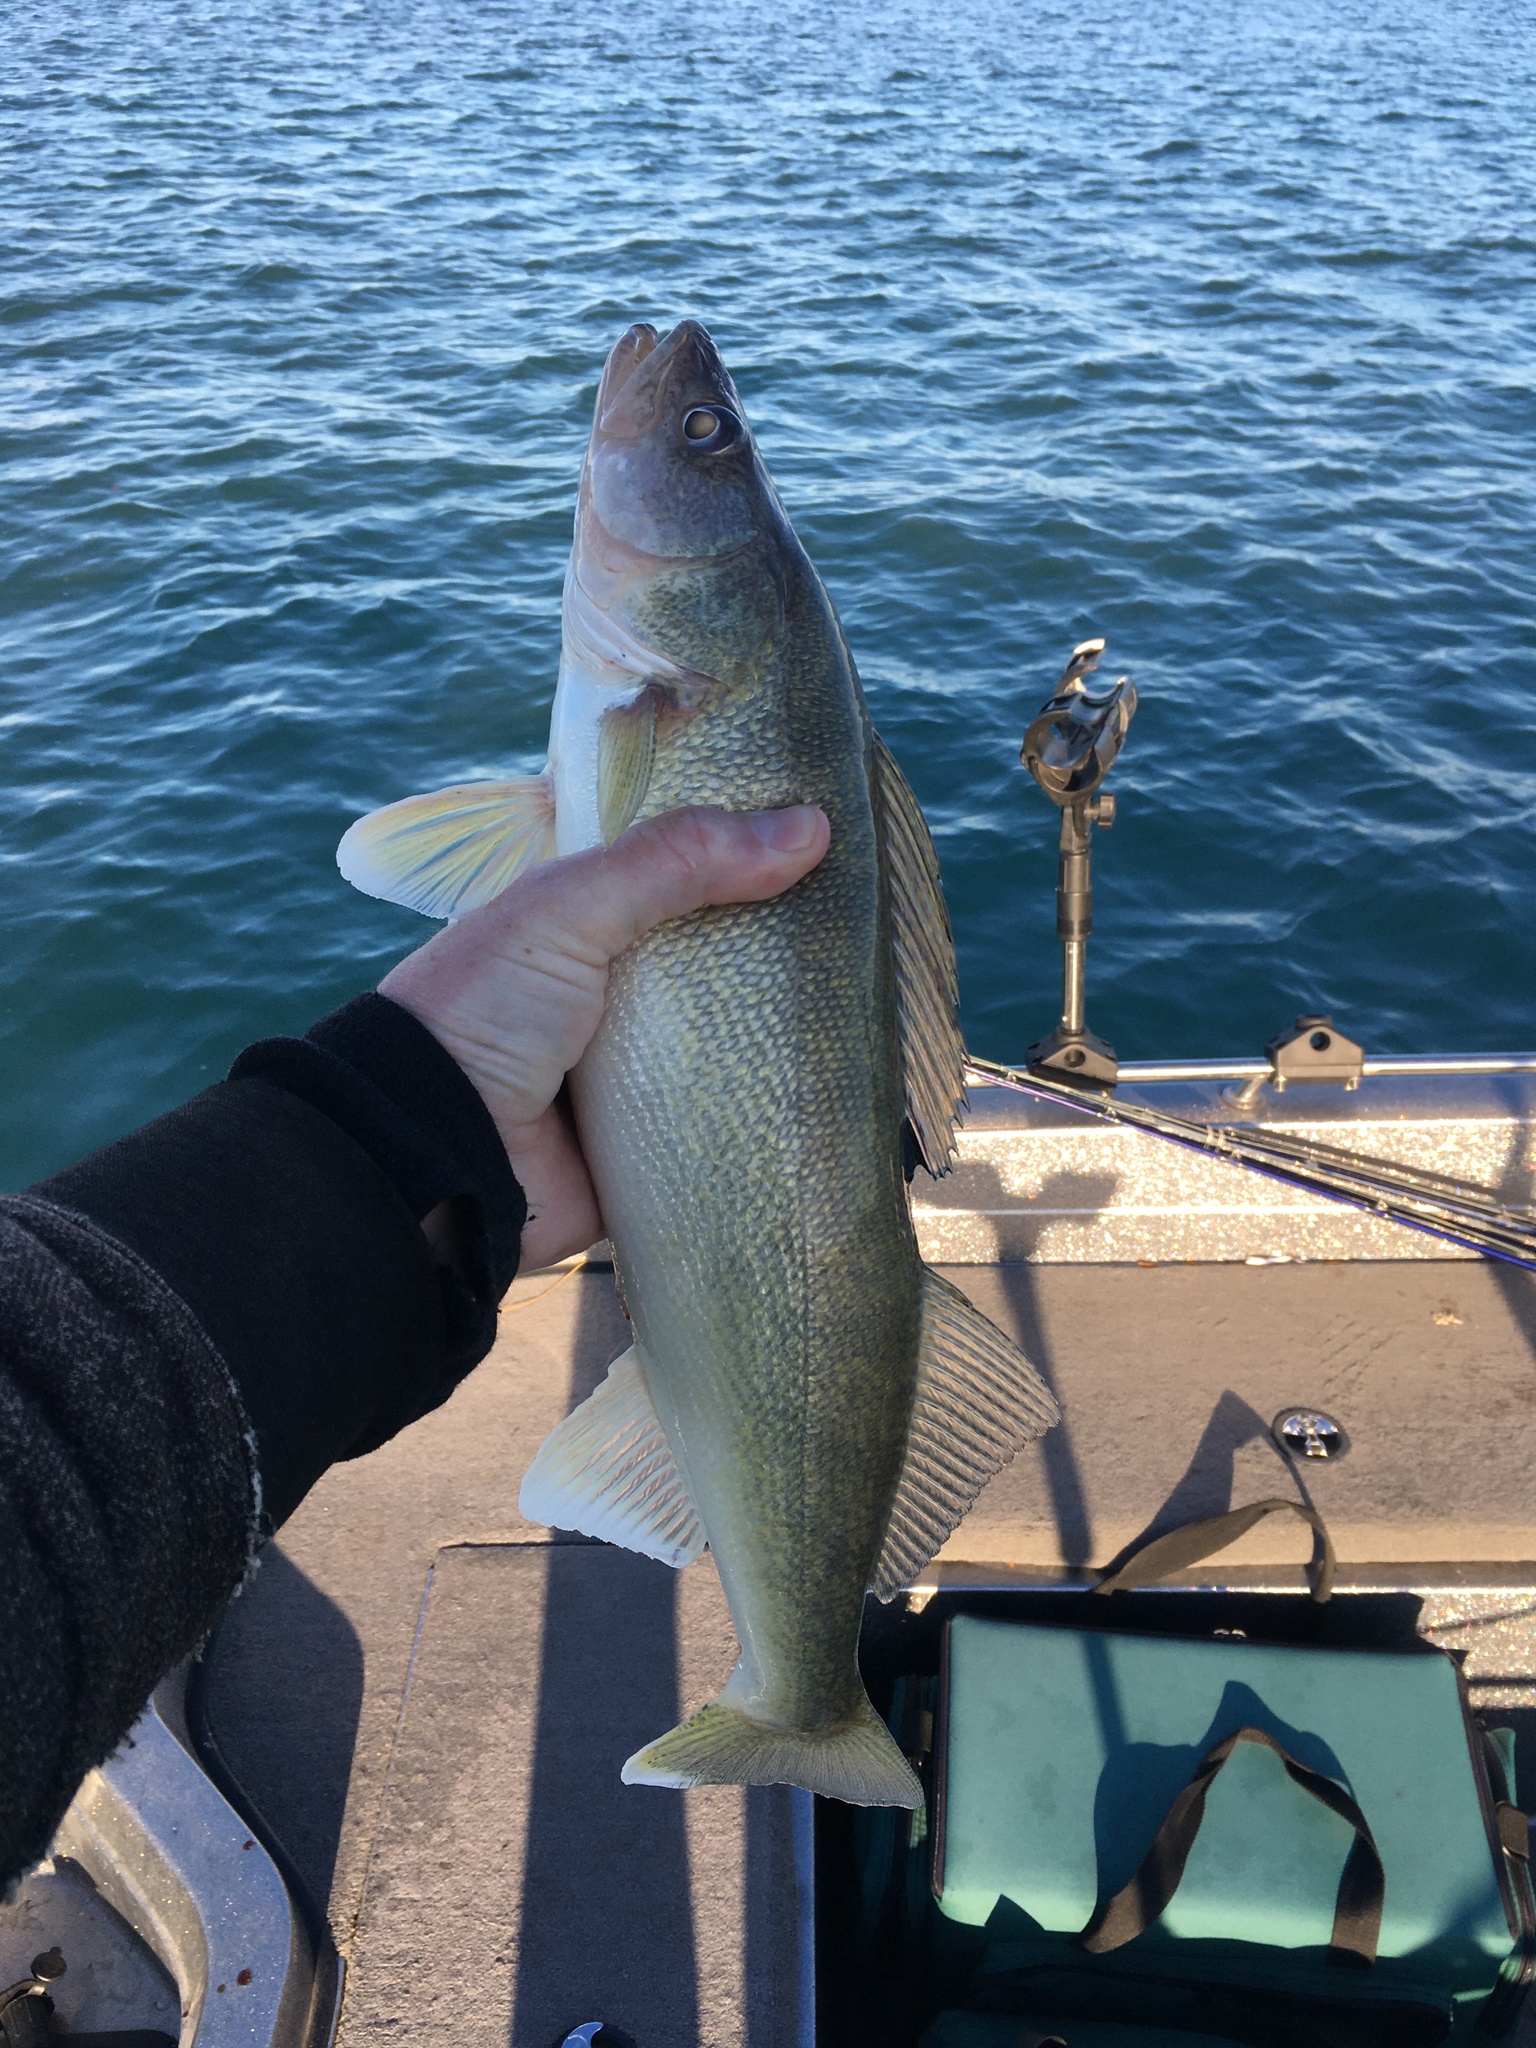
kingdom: Animalia
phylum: Chordata
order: Perciformes
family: Percidae
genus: Sander
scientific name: Sander vitreus
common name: Walleye
